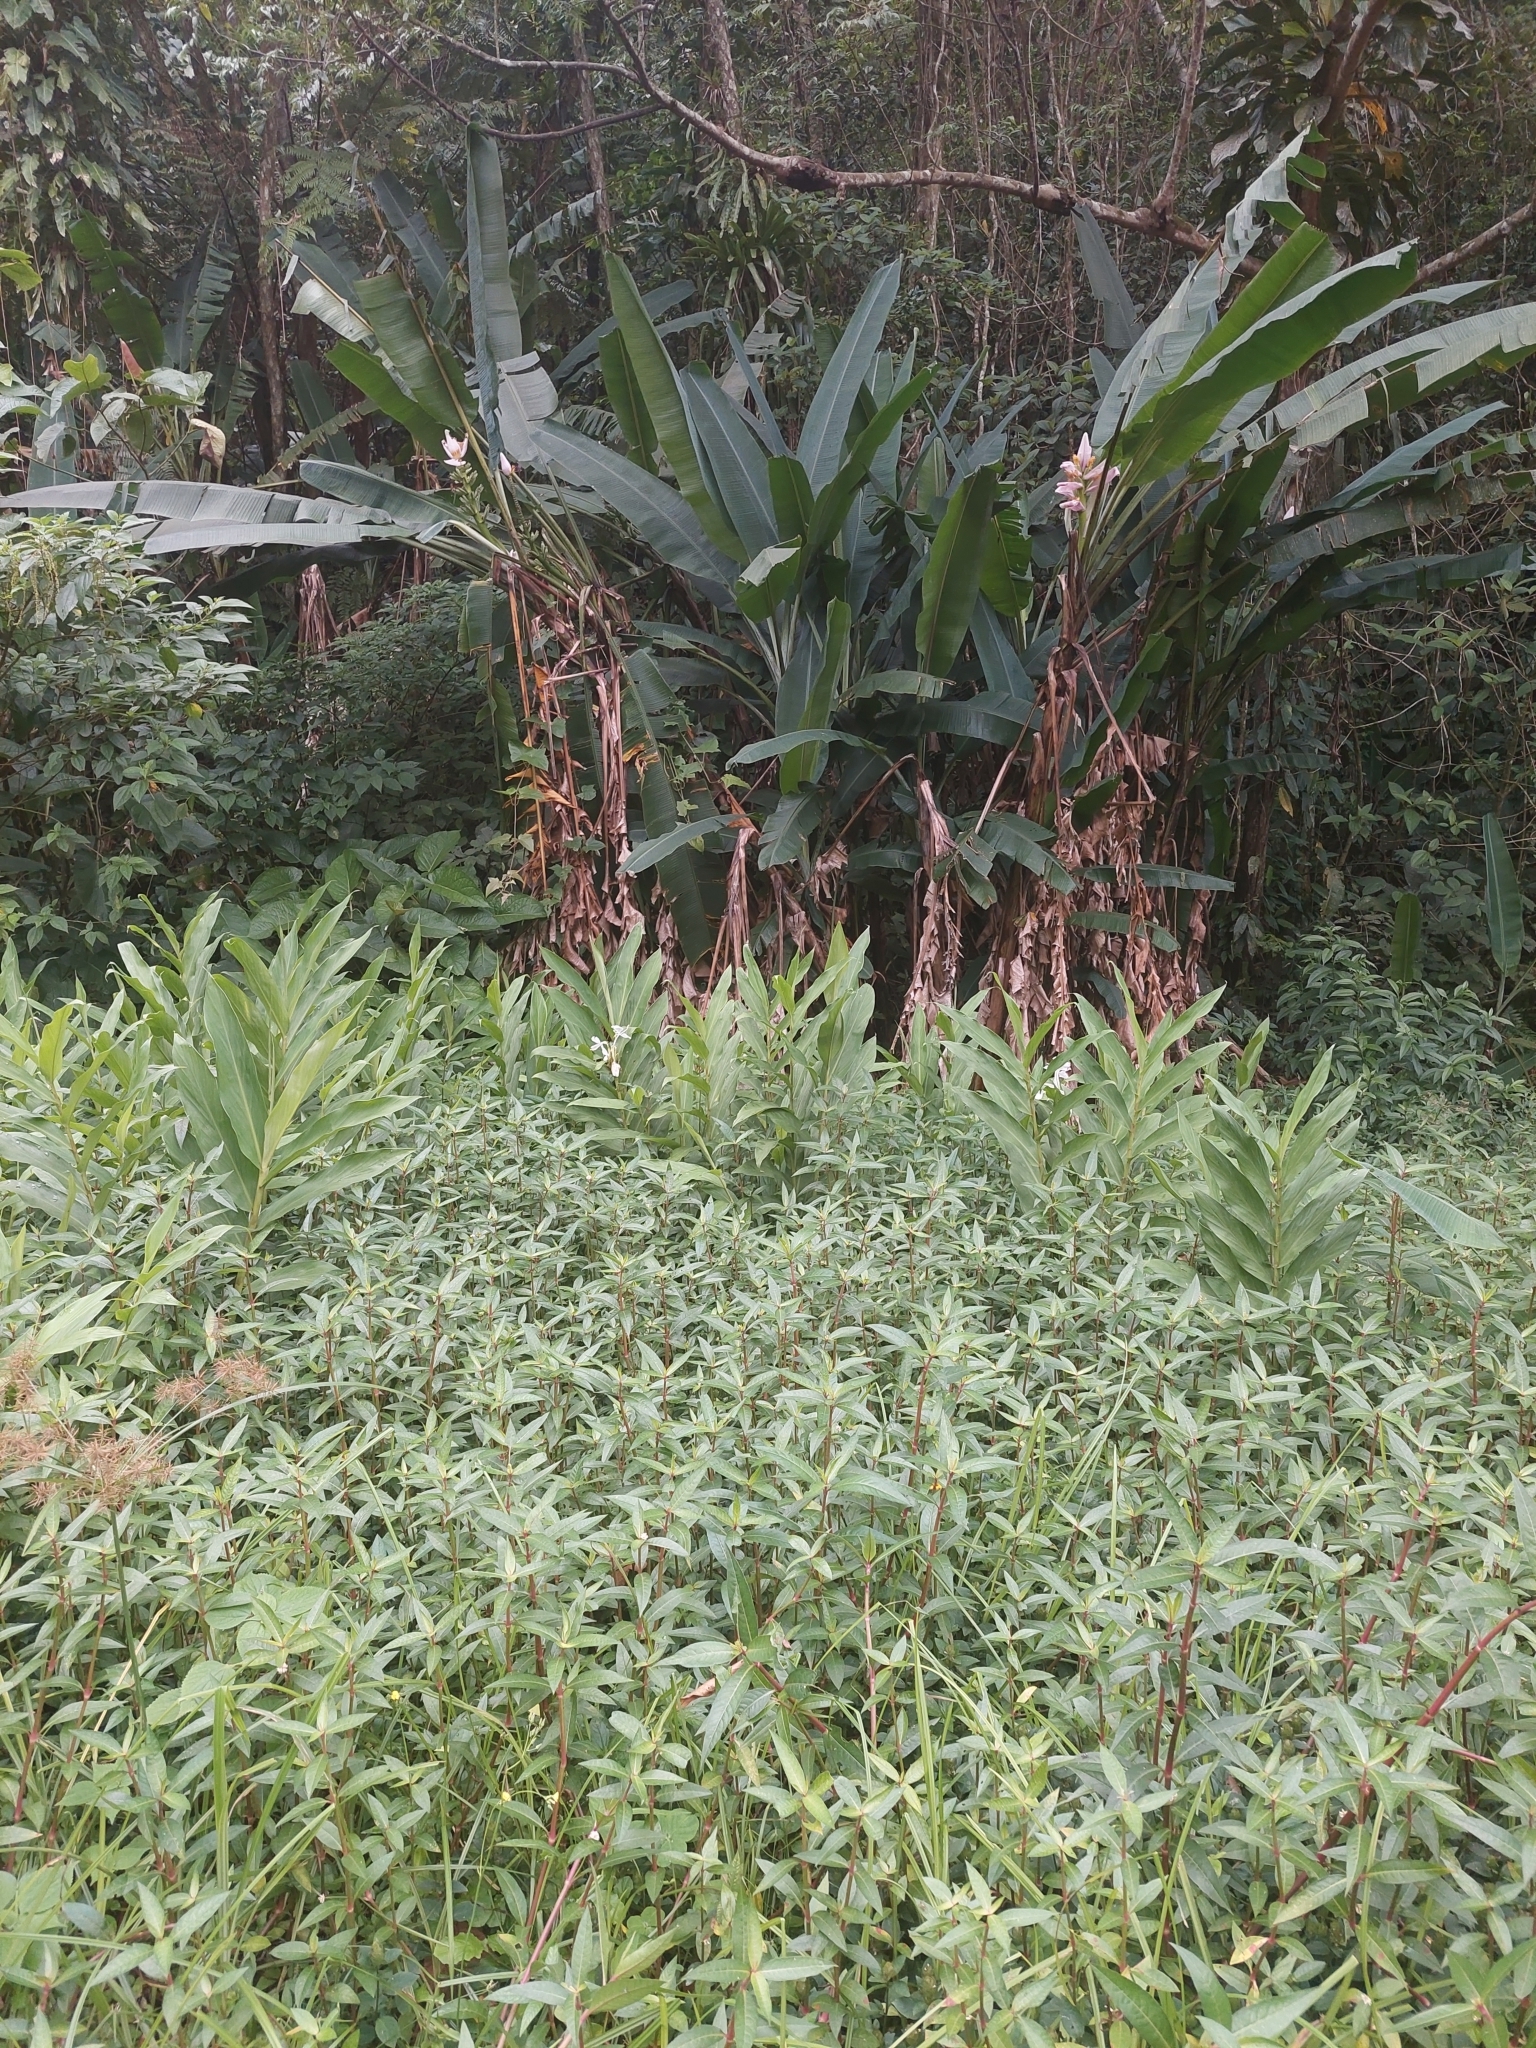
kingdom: Plantae
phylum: Tracheophyta
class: Liliopsida
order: Zingiberales
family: Zingiberaceae
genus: Hedychium
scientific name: Hedychium coronarium
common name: White garland-lily
